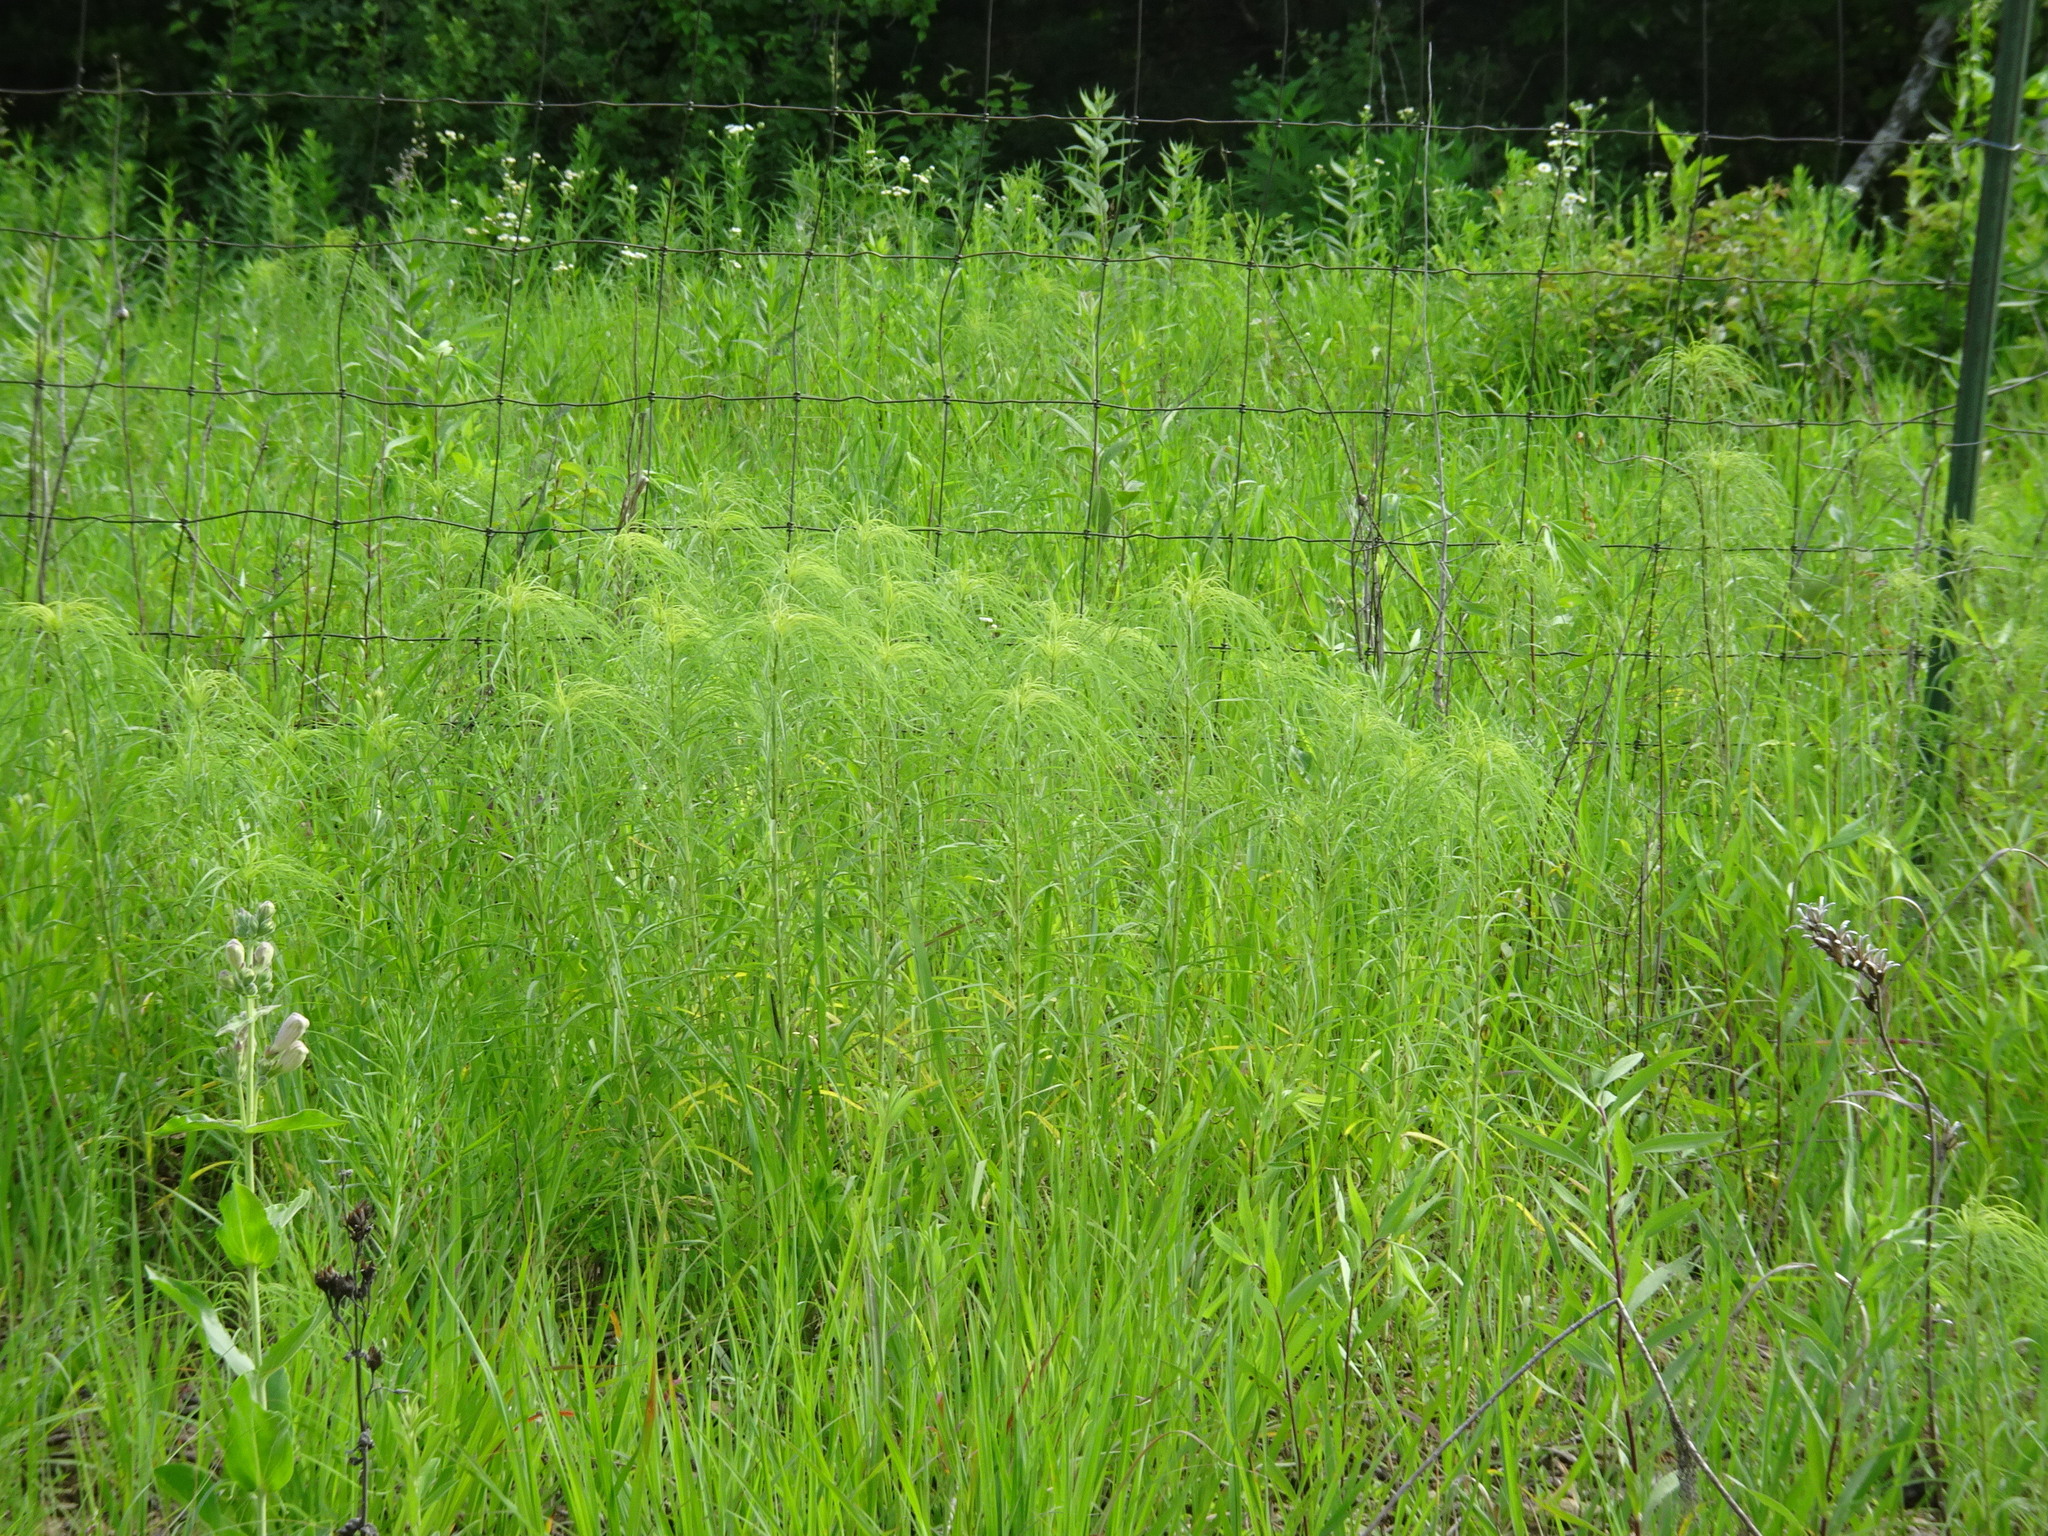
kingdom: Plantae
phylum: Tracheophyta
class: Magnoliopsida
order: Asterales
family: Asteraceae
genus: Helianthus
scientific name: Helianthus salicifolius
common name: Willowleaf sunflower
